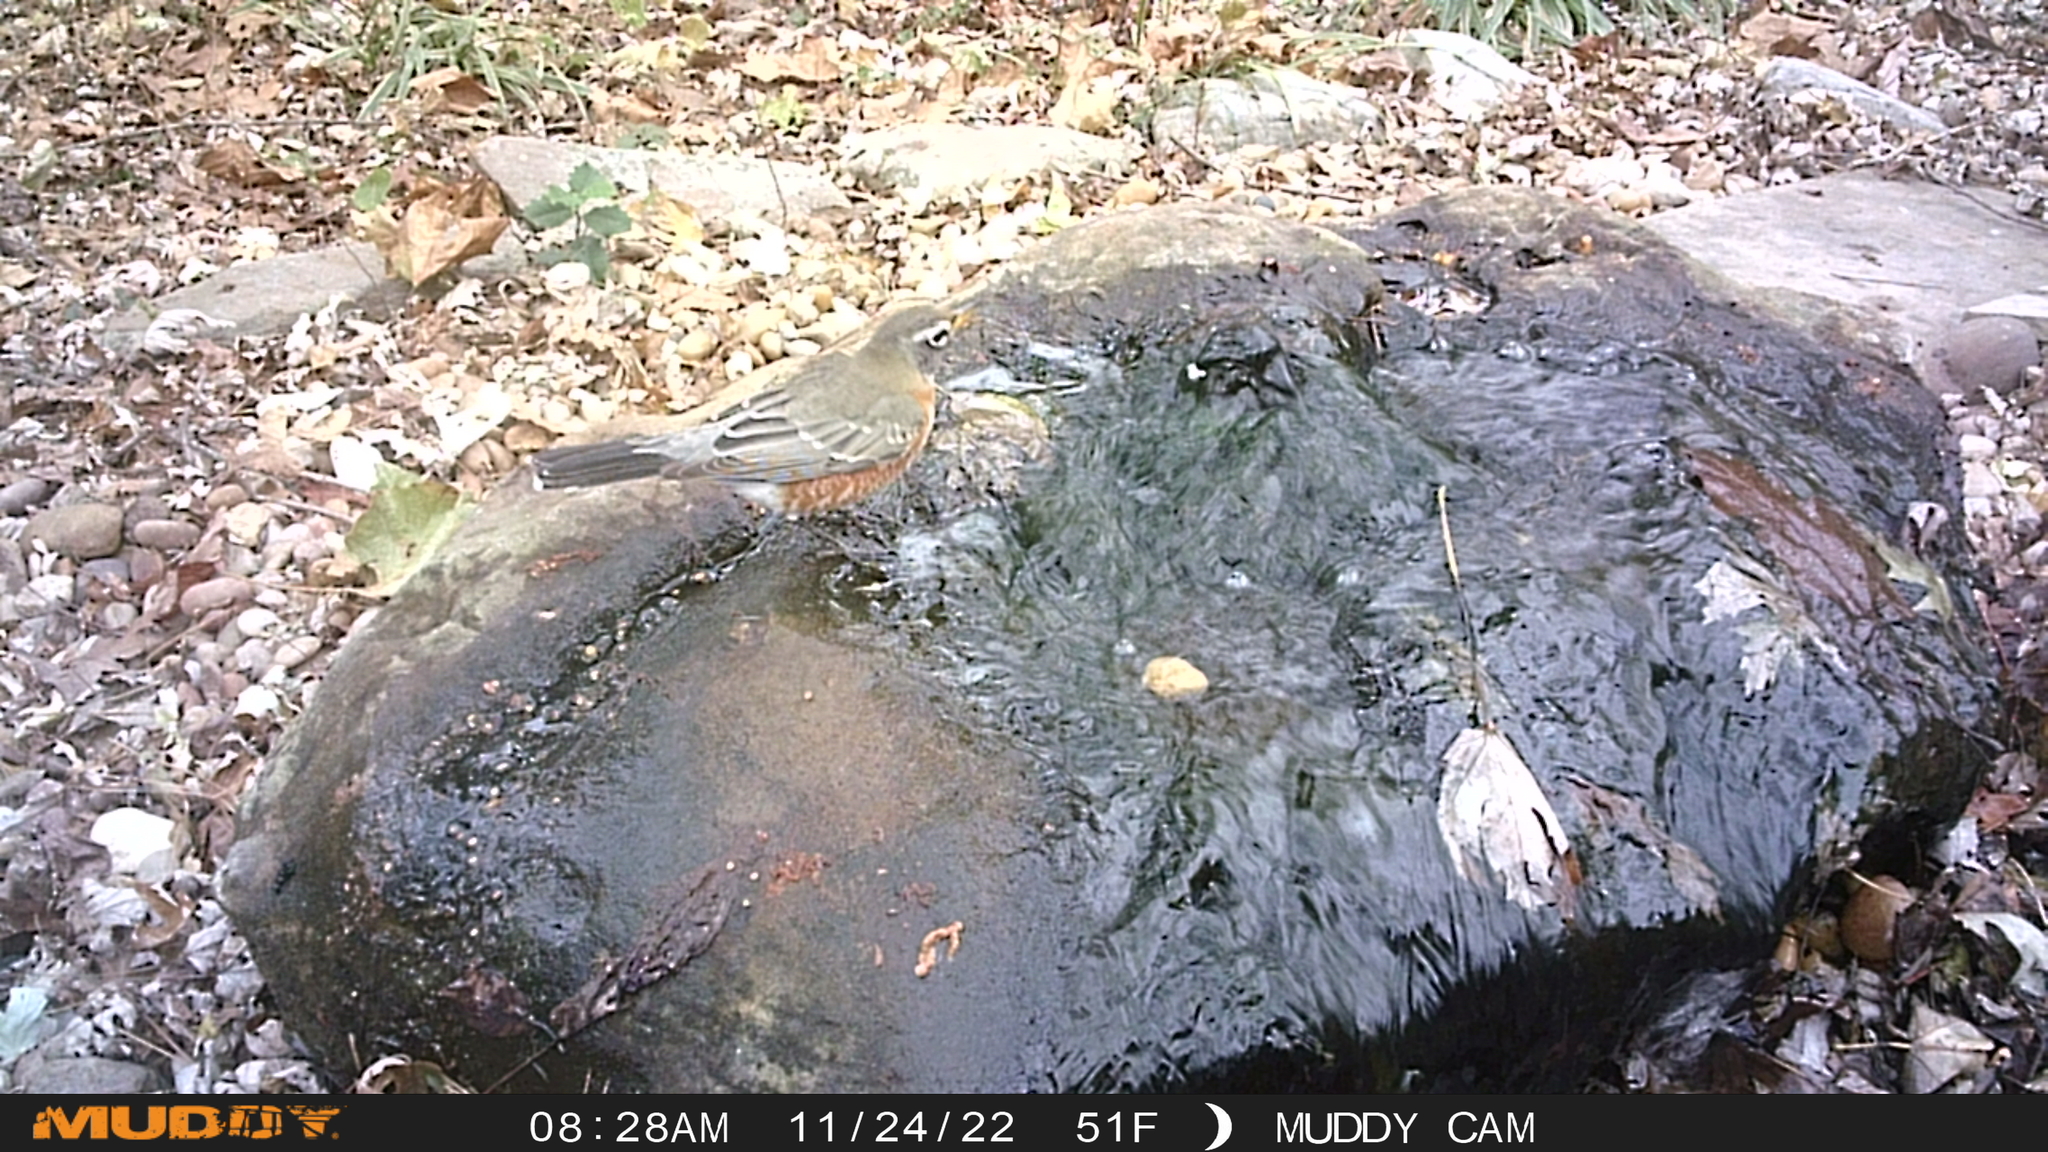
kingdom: Animalia
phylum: Chordata
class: Aves
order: Passeriformes
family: Turdidae
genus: Turdus
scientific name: Turdus migratorius
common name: American robin
